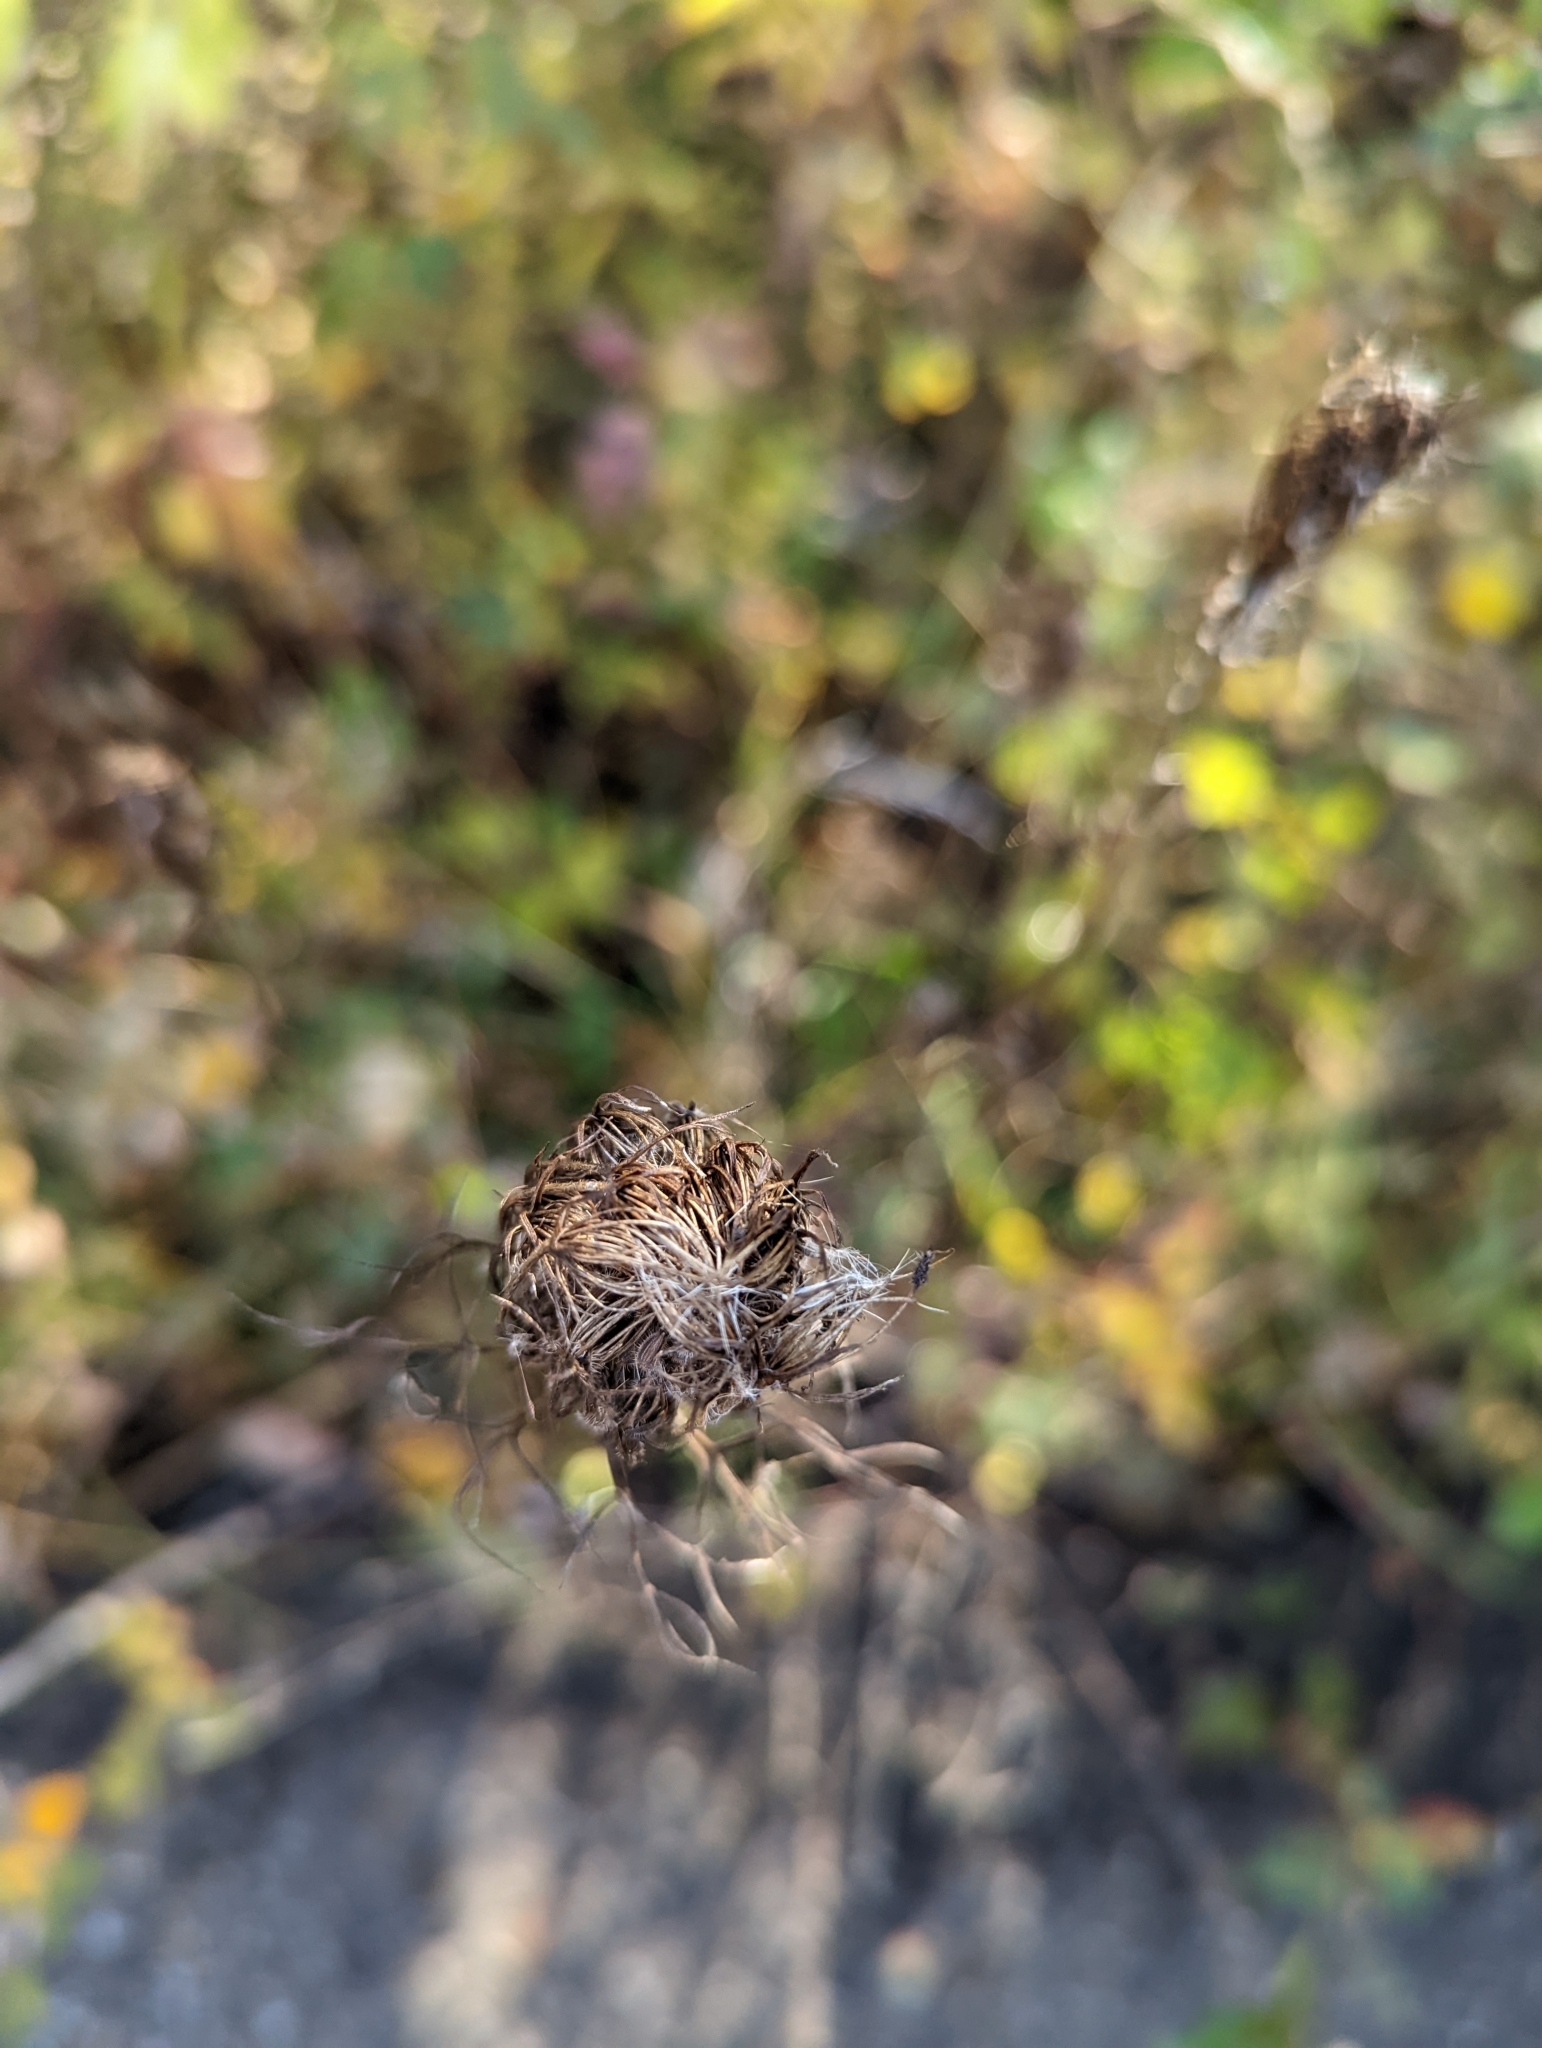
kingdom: Plantae
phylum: Tracheophyta
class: Magnoliopsida
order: Apiales
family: Apiaceae
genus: Daucus
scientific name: Daucus carota
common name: Wild carrot
